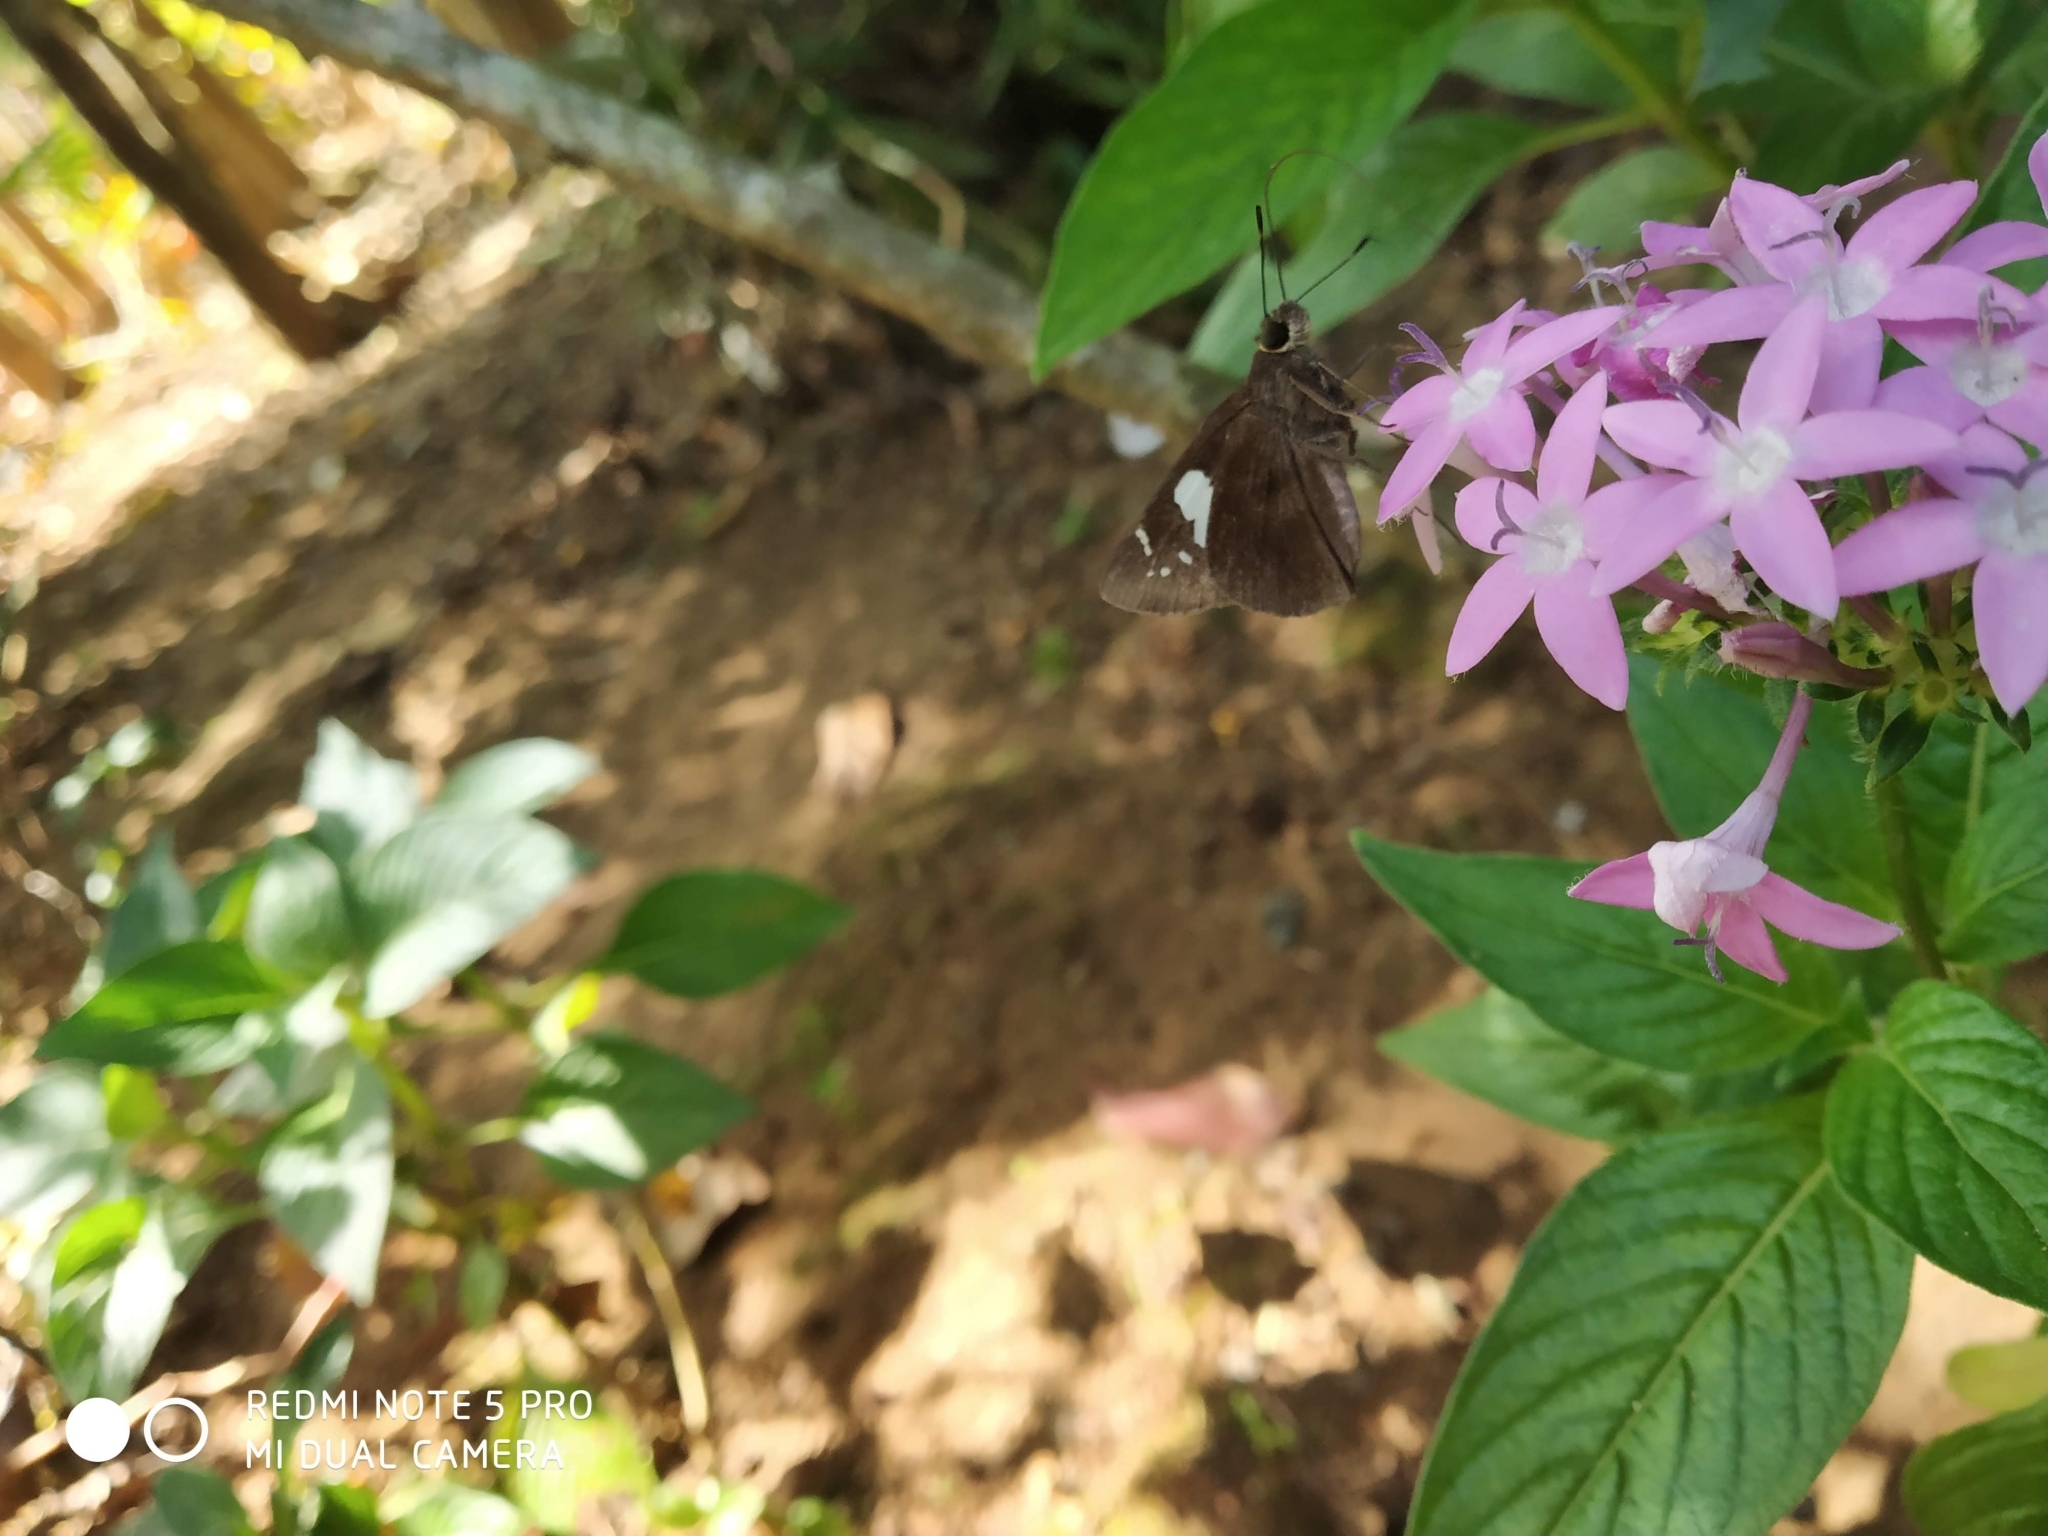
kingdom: Animalia
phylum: Arthropoda
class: Insecta
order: Lepidoptera
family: Hesperiidae
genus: Notocrypta
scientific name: Notocrypta curvifascia
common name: Restricted demon
